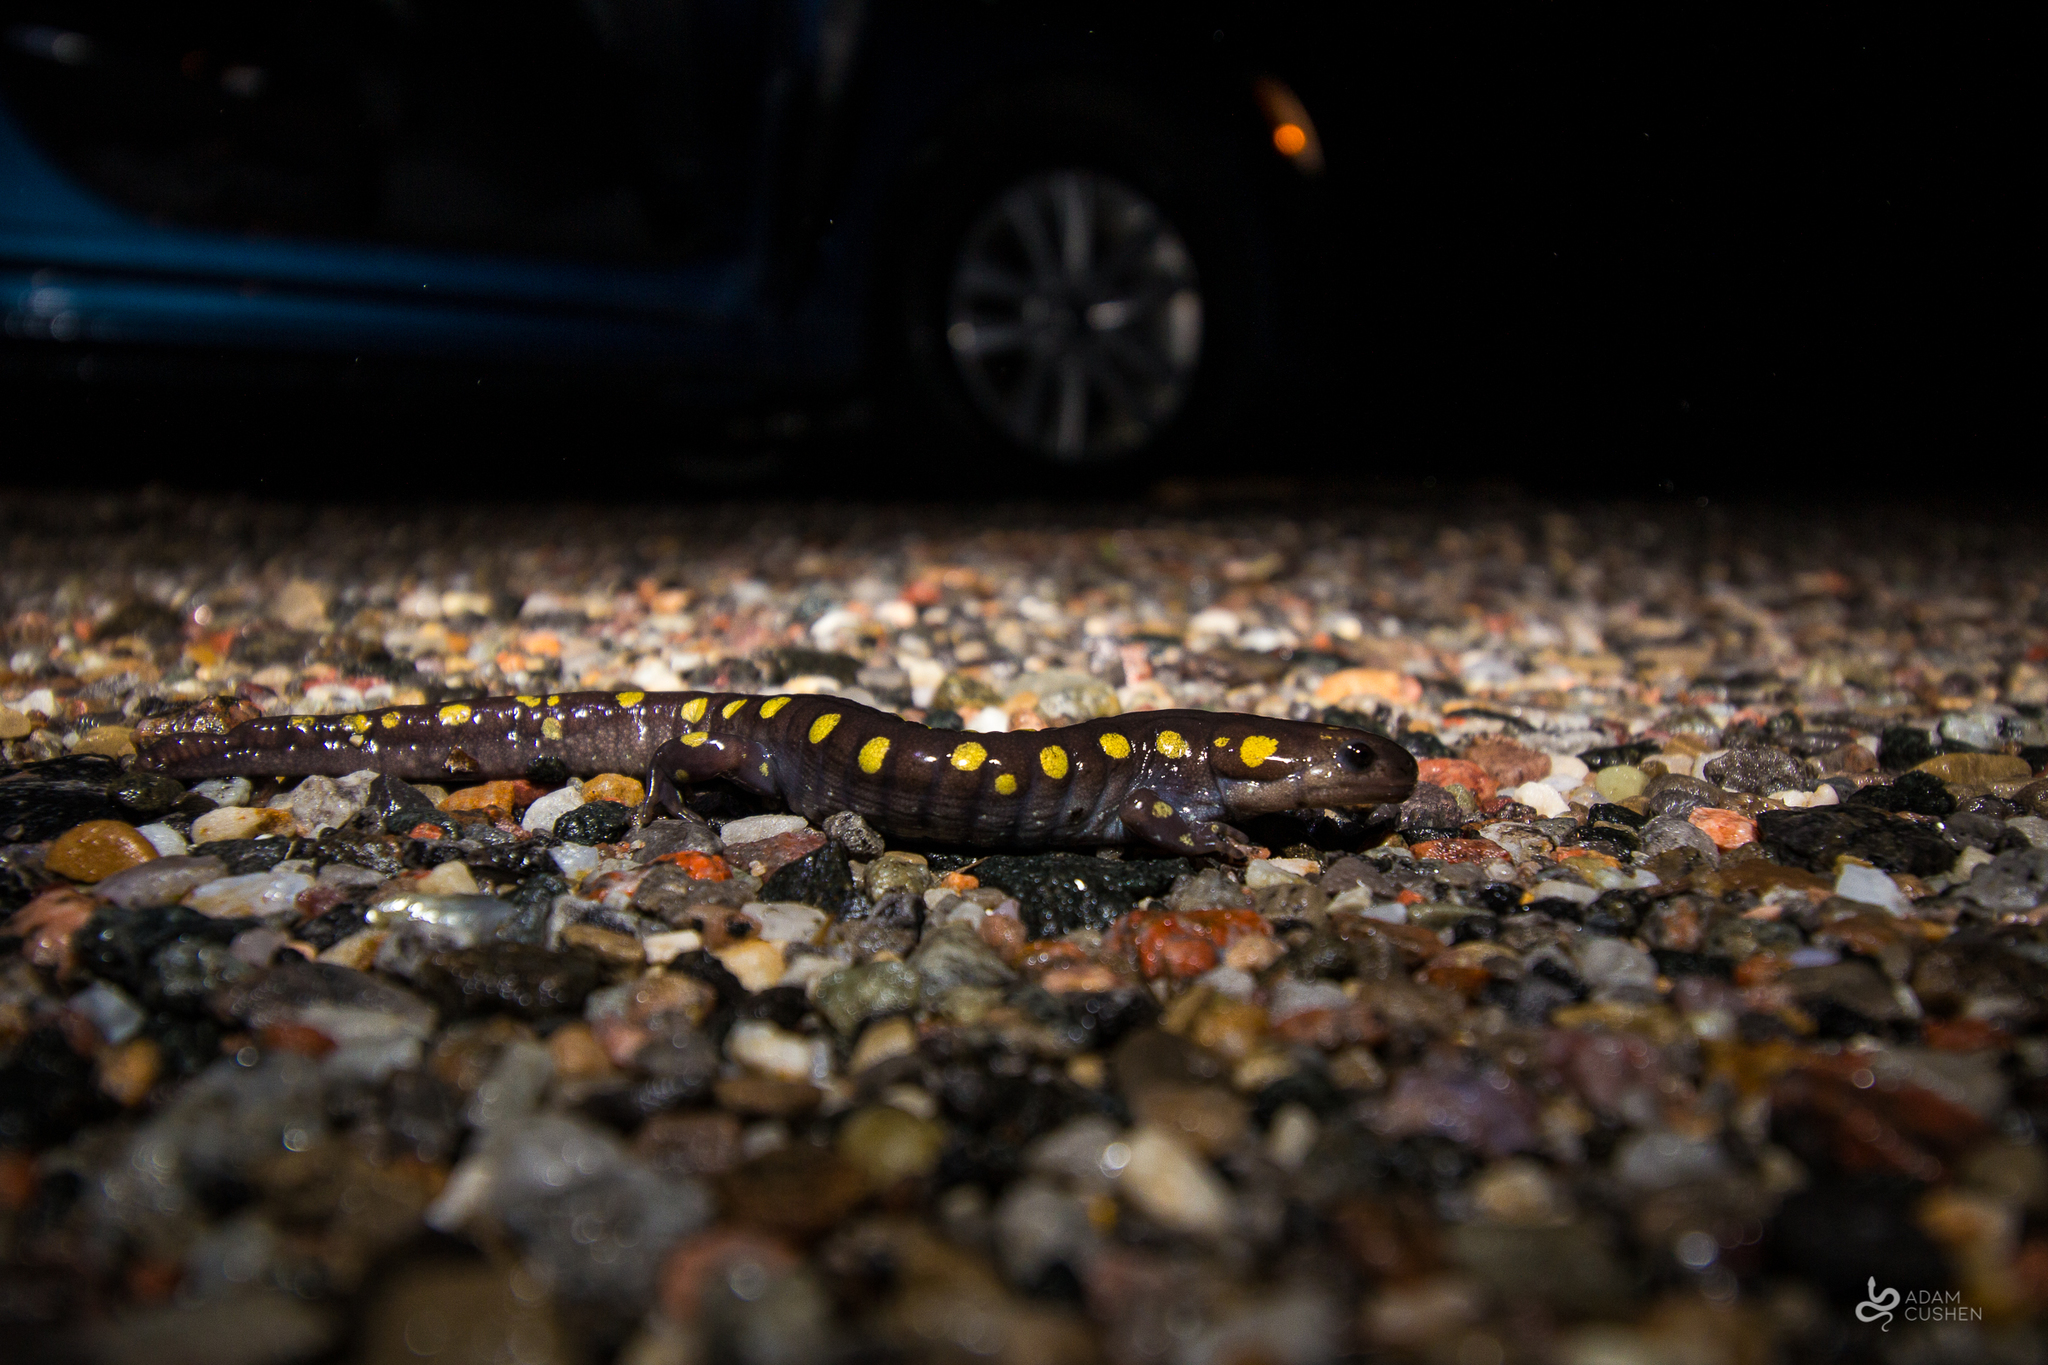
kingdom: Animalia
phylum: Chordata
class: Amphibia
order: Caudata
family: Ambystomatidae
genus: Ambystoma
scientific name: Ambystoma maculatum
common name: Spotted salamander
